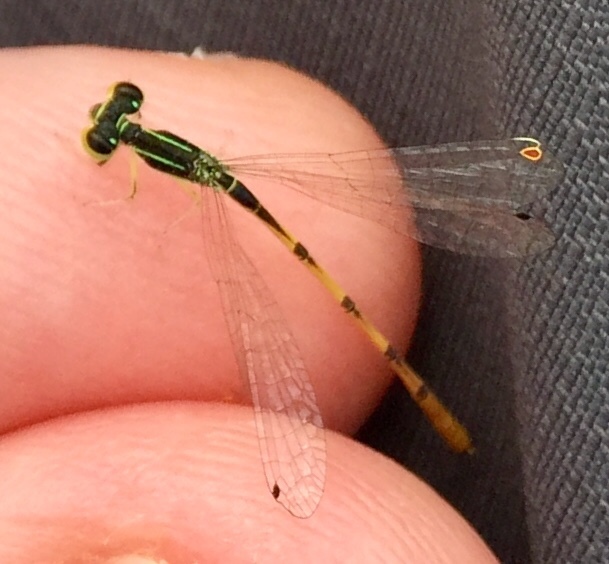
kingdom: Animalia
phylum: Arthropoda
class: Insecta
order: Odonata
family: Coenagrionidae
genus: Ischnura
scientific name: Ischnura hastata
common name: Citrine forktail
